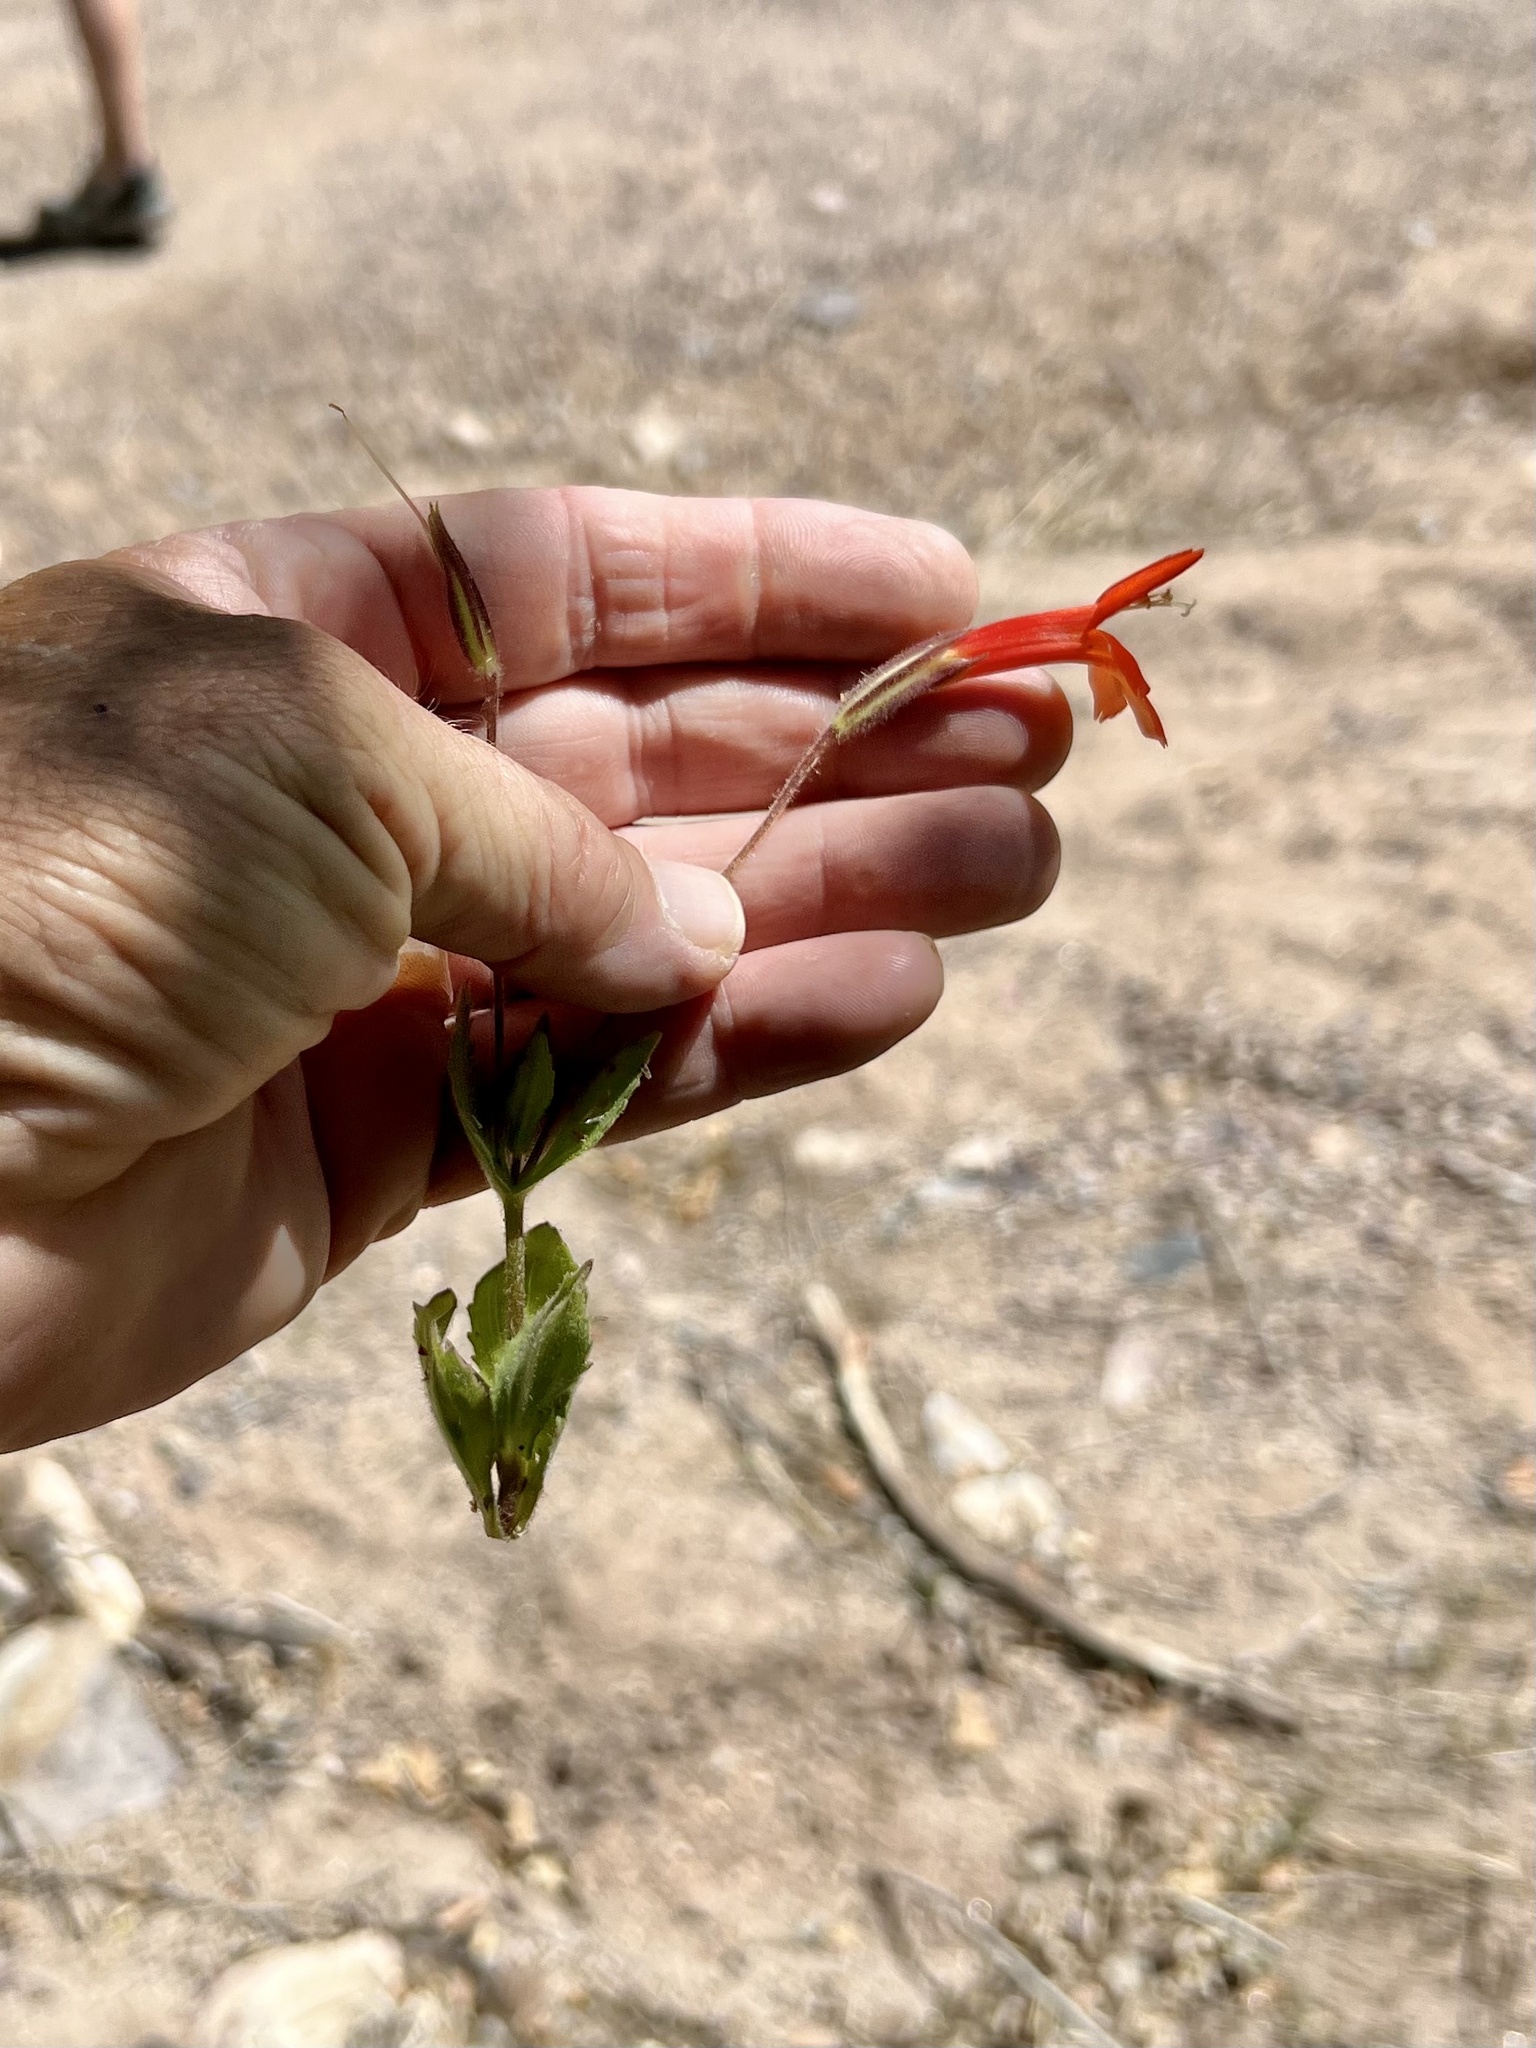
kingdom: Plantae
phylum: Tracheophyta
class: Magnoliopsida
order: Lamiales
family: Phrymaceae
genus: Erythranthe
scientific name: Erythranthe verbenacea
